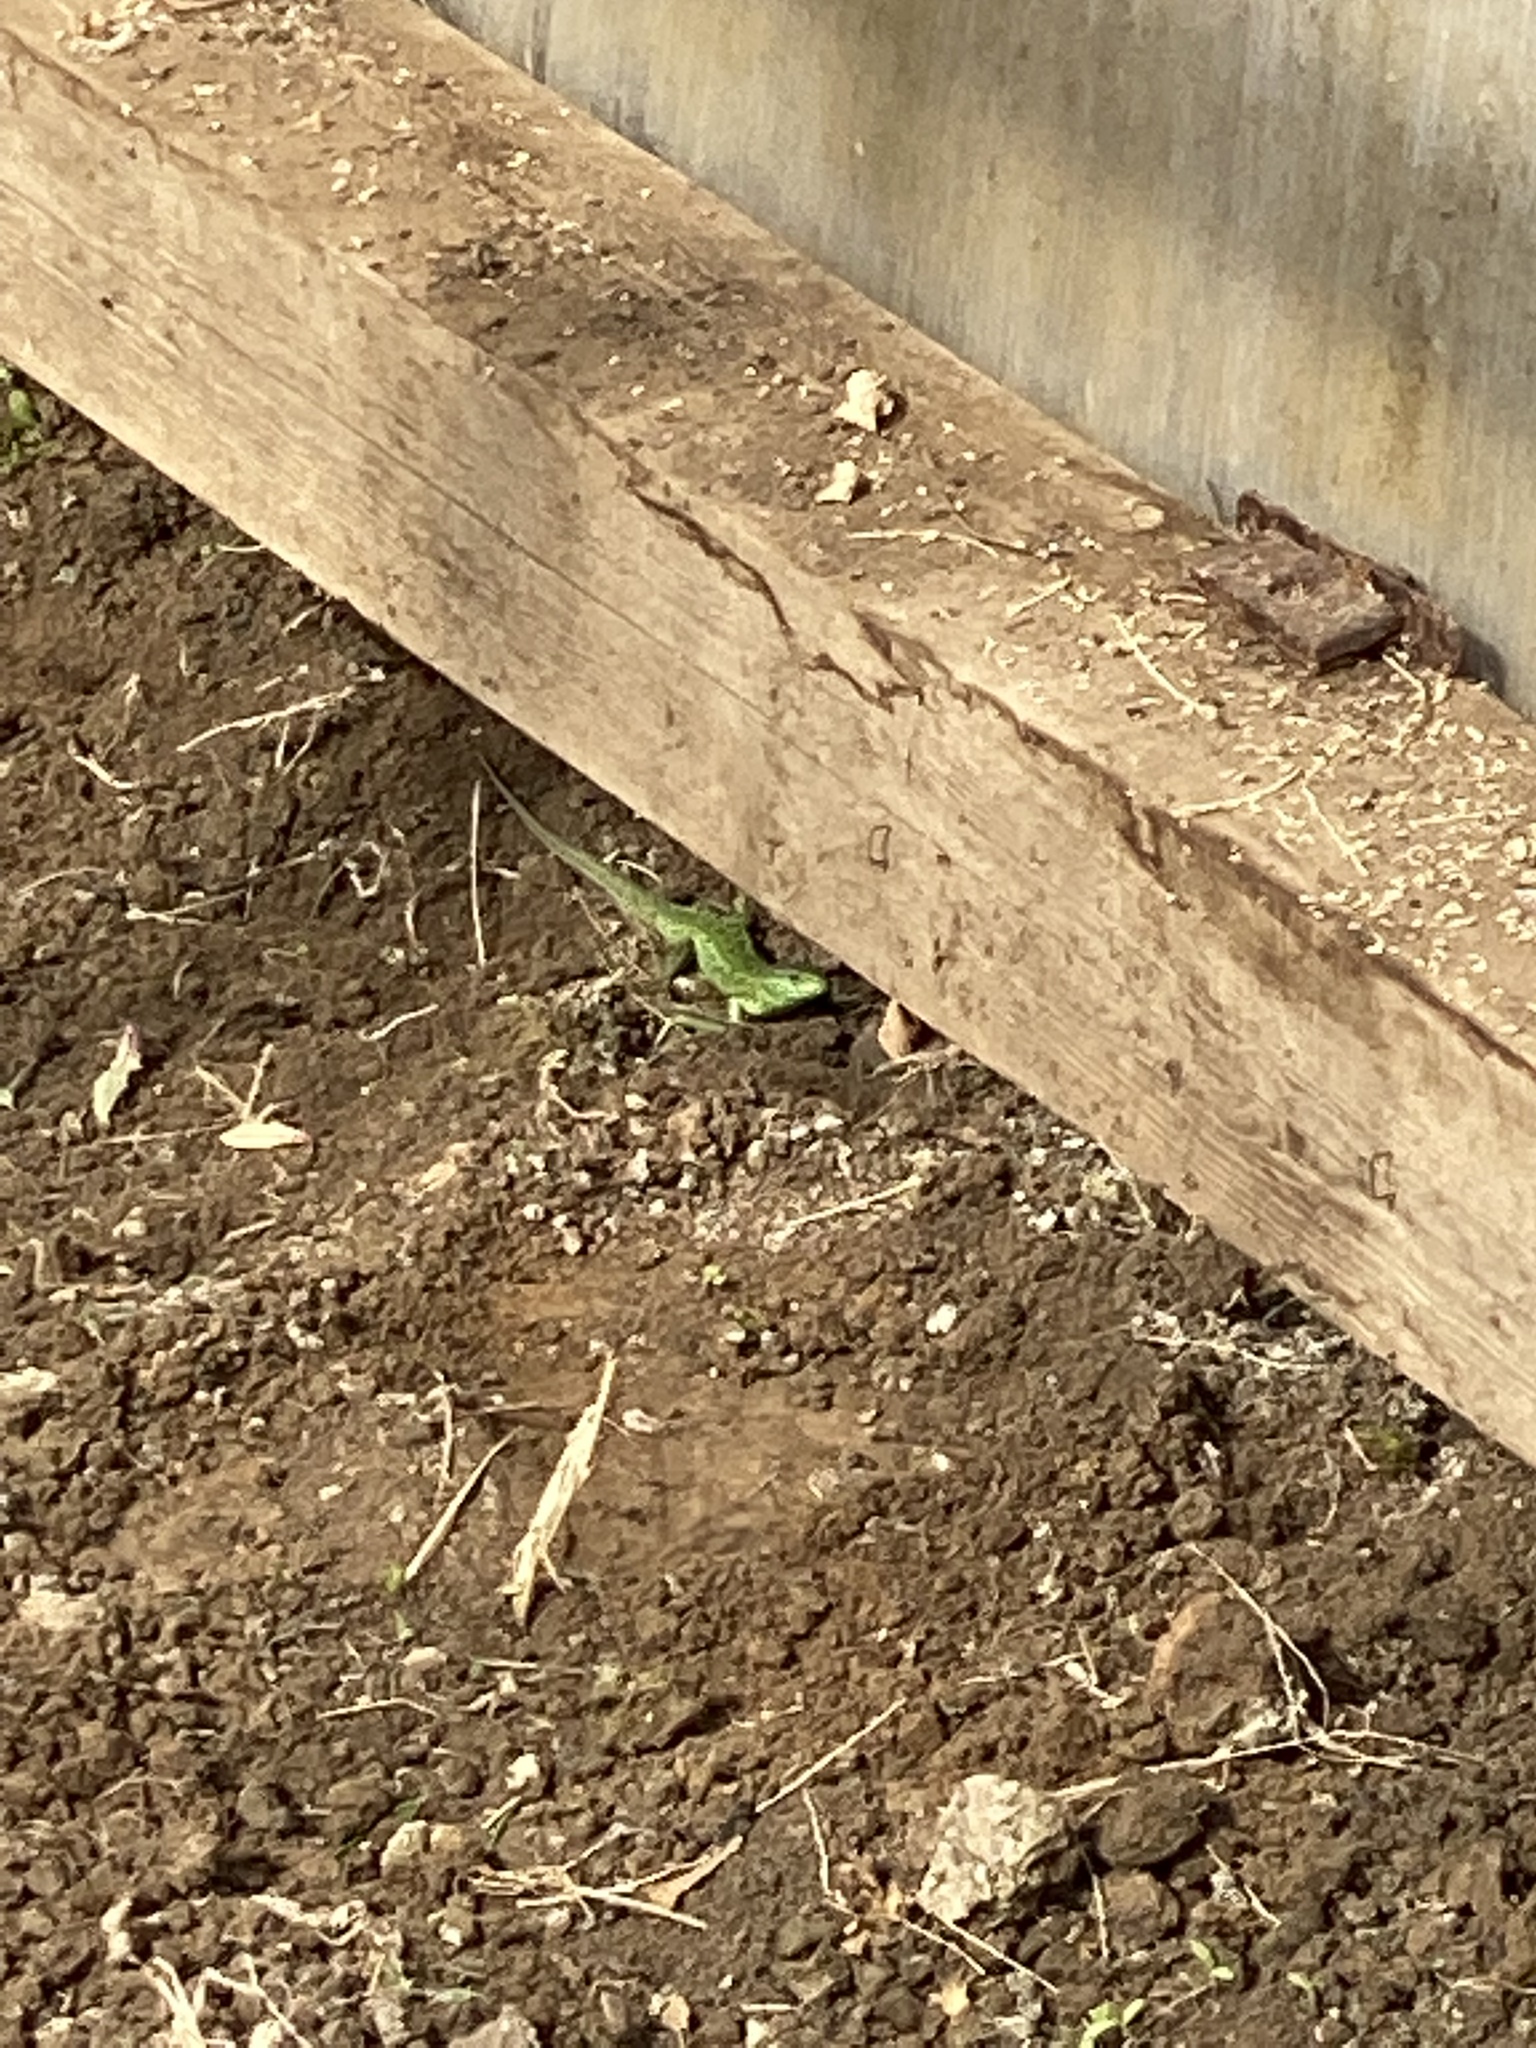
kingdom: Animalia
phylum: Chordata
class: Squamata
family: Lacertidae
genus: Lacerta
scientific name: Lacerta agilis
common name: Sand lizard
